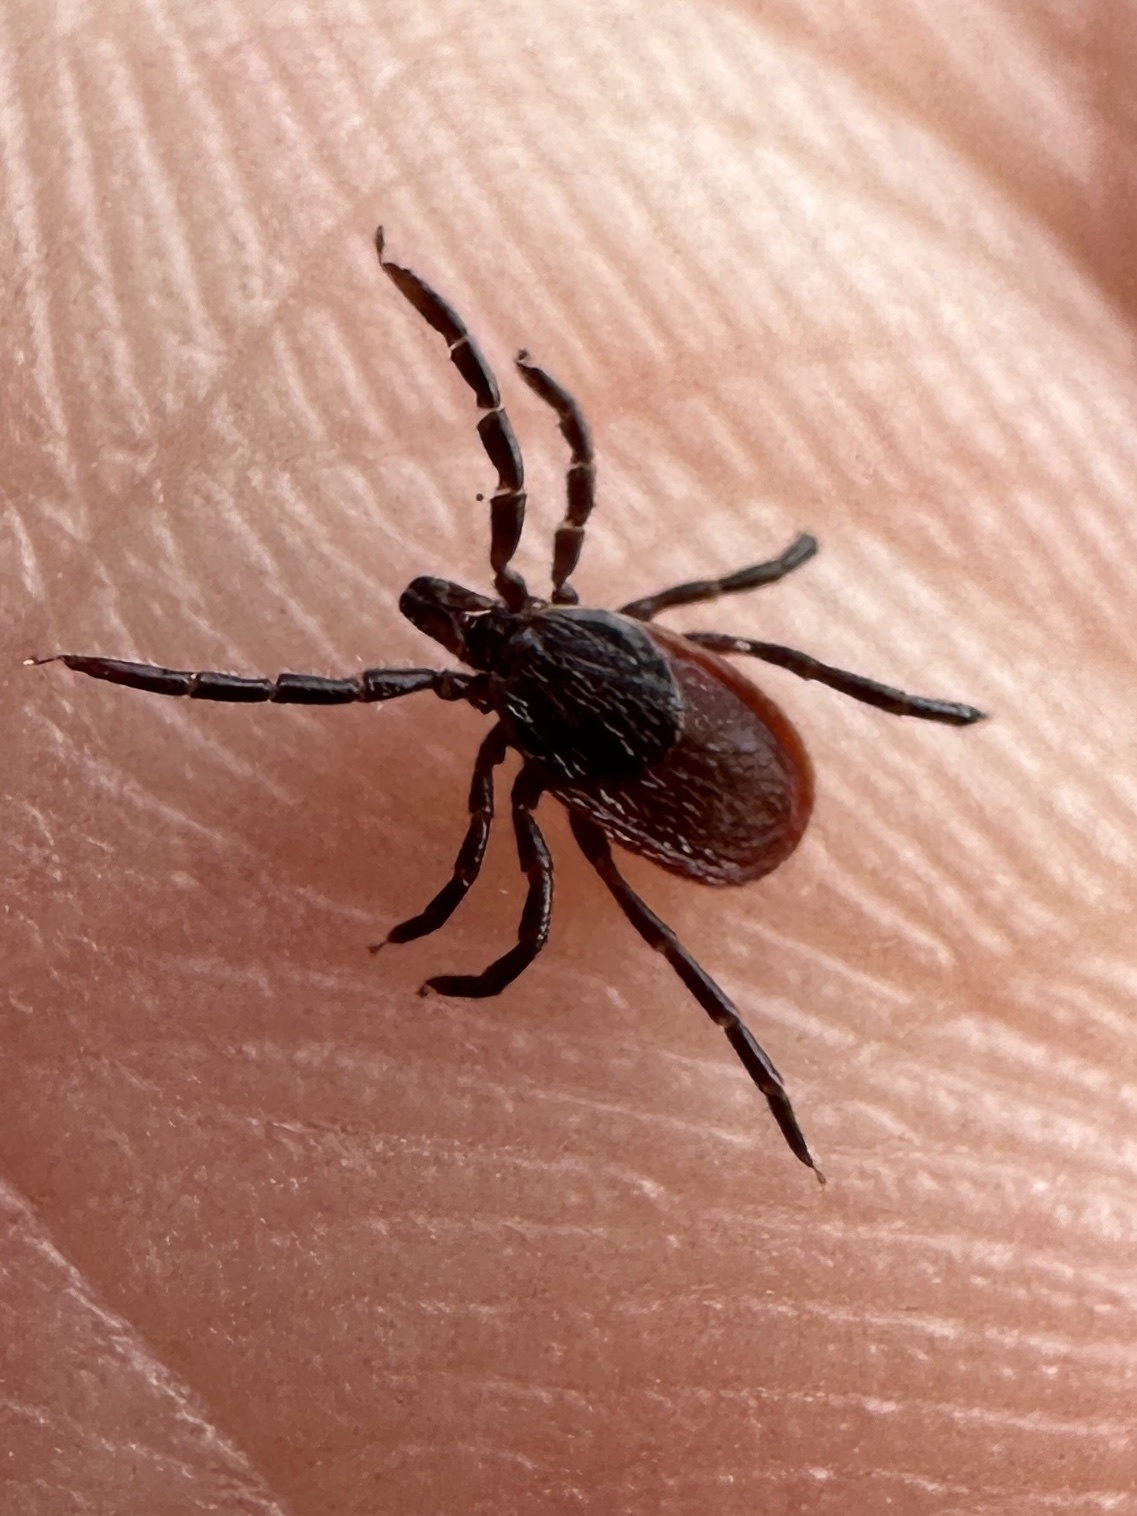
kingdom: Animalia
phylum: Arthropoda
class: Arachnida
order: Ixodida
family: Ixodidae
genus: Ixodes
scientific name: Ixodes pacificus
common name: California black-legged tick
